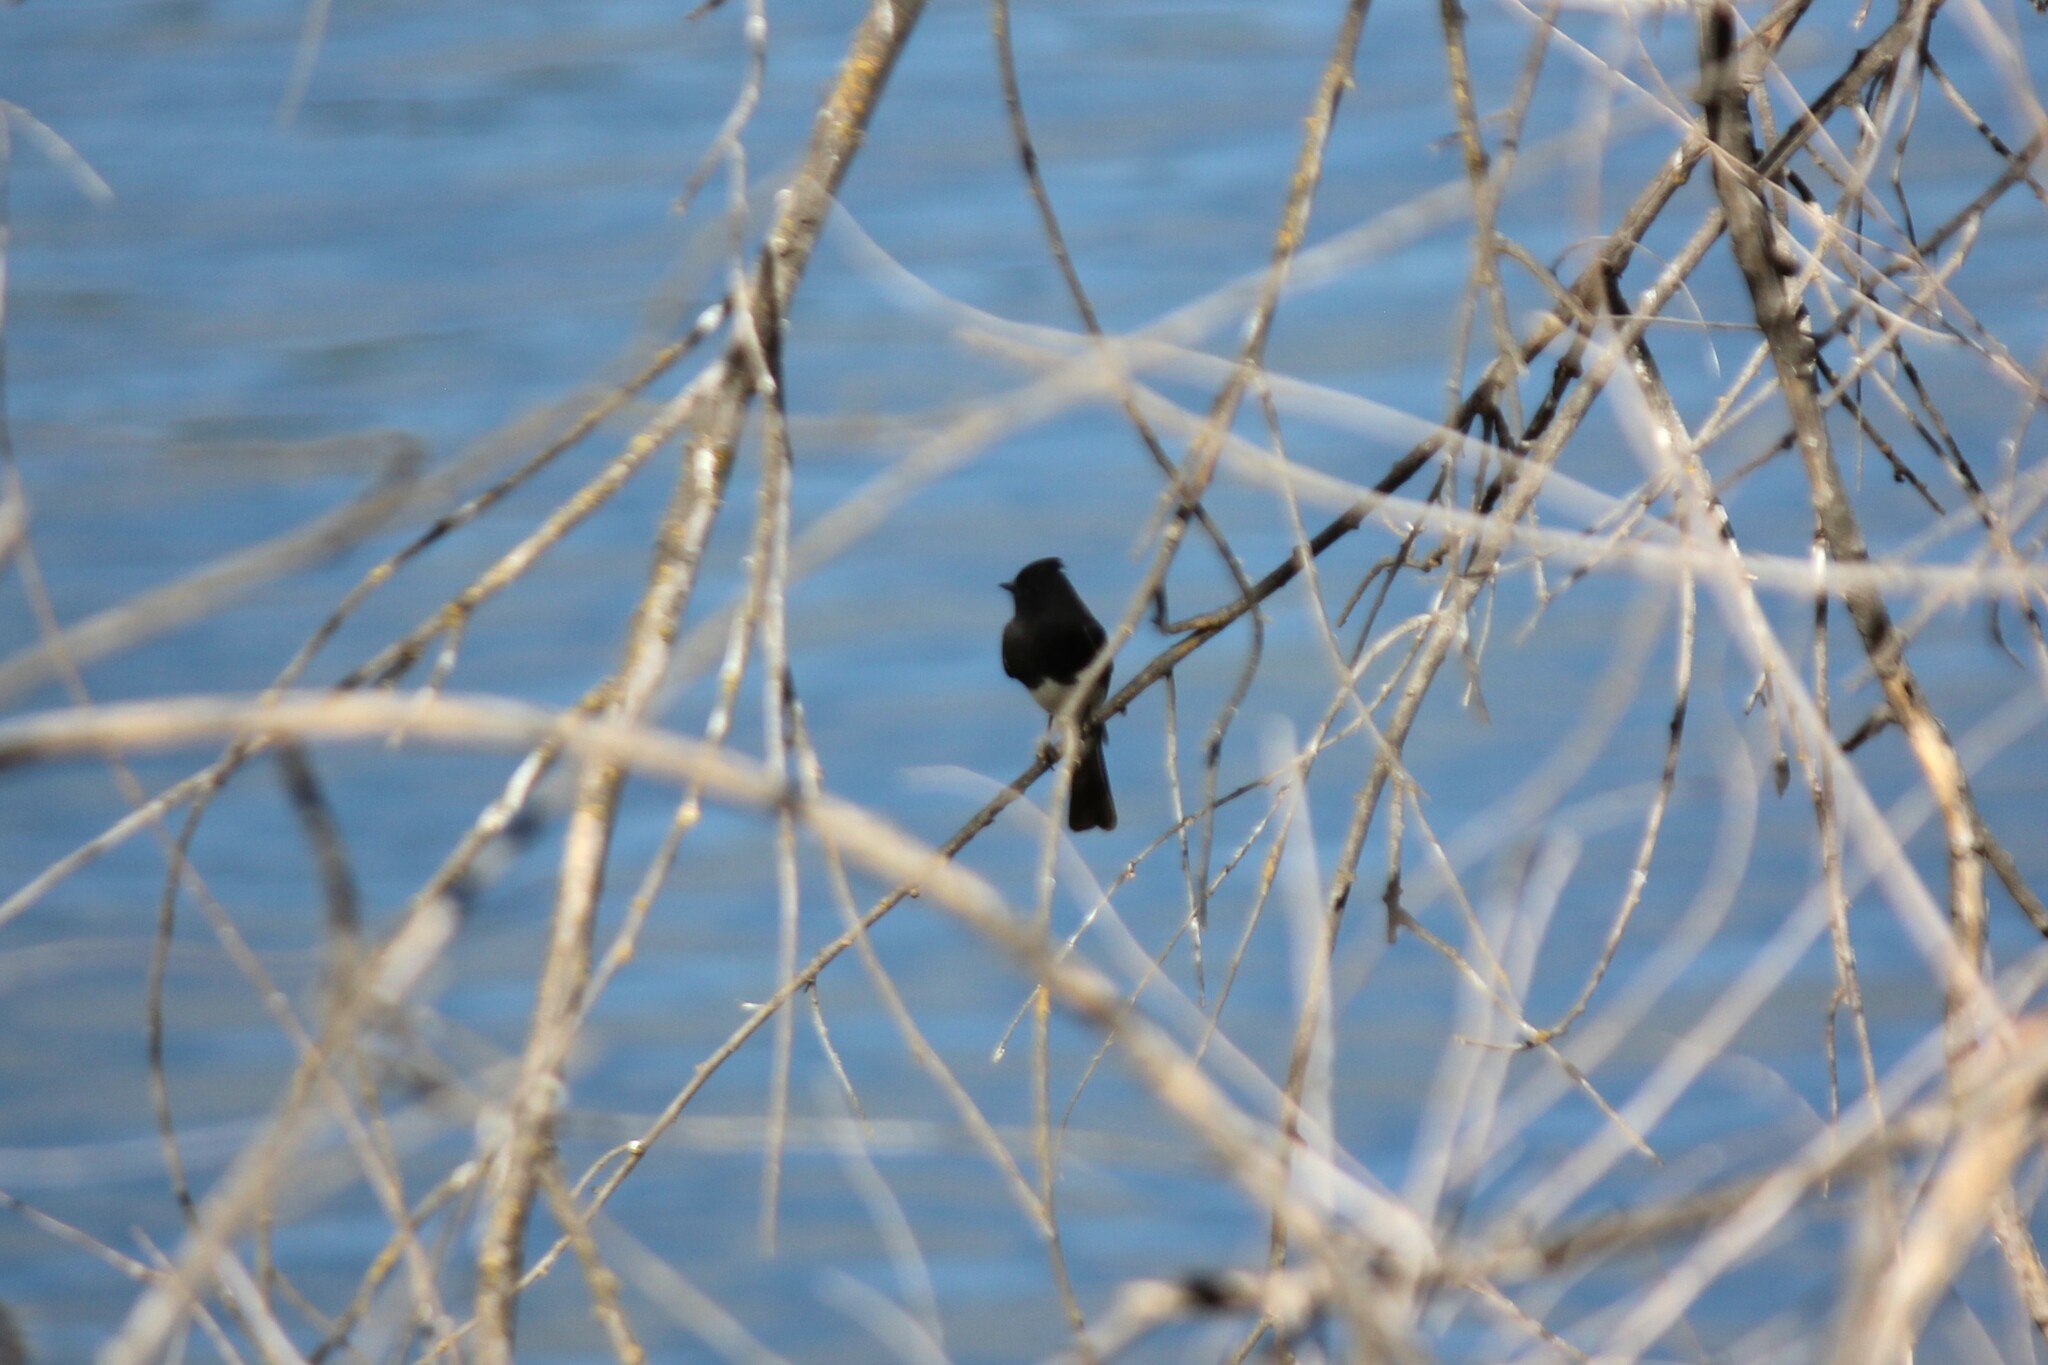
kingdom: Animalia
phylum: Chordata
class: Aves
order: Passeriformes
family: Tyrannidae
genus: Sayornis
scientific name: Sayornis nigricans
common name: Black phoebe
